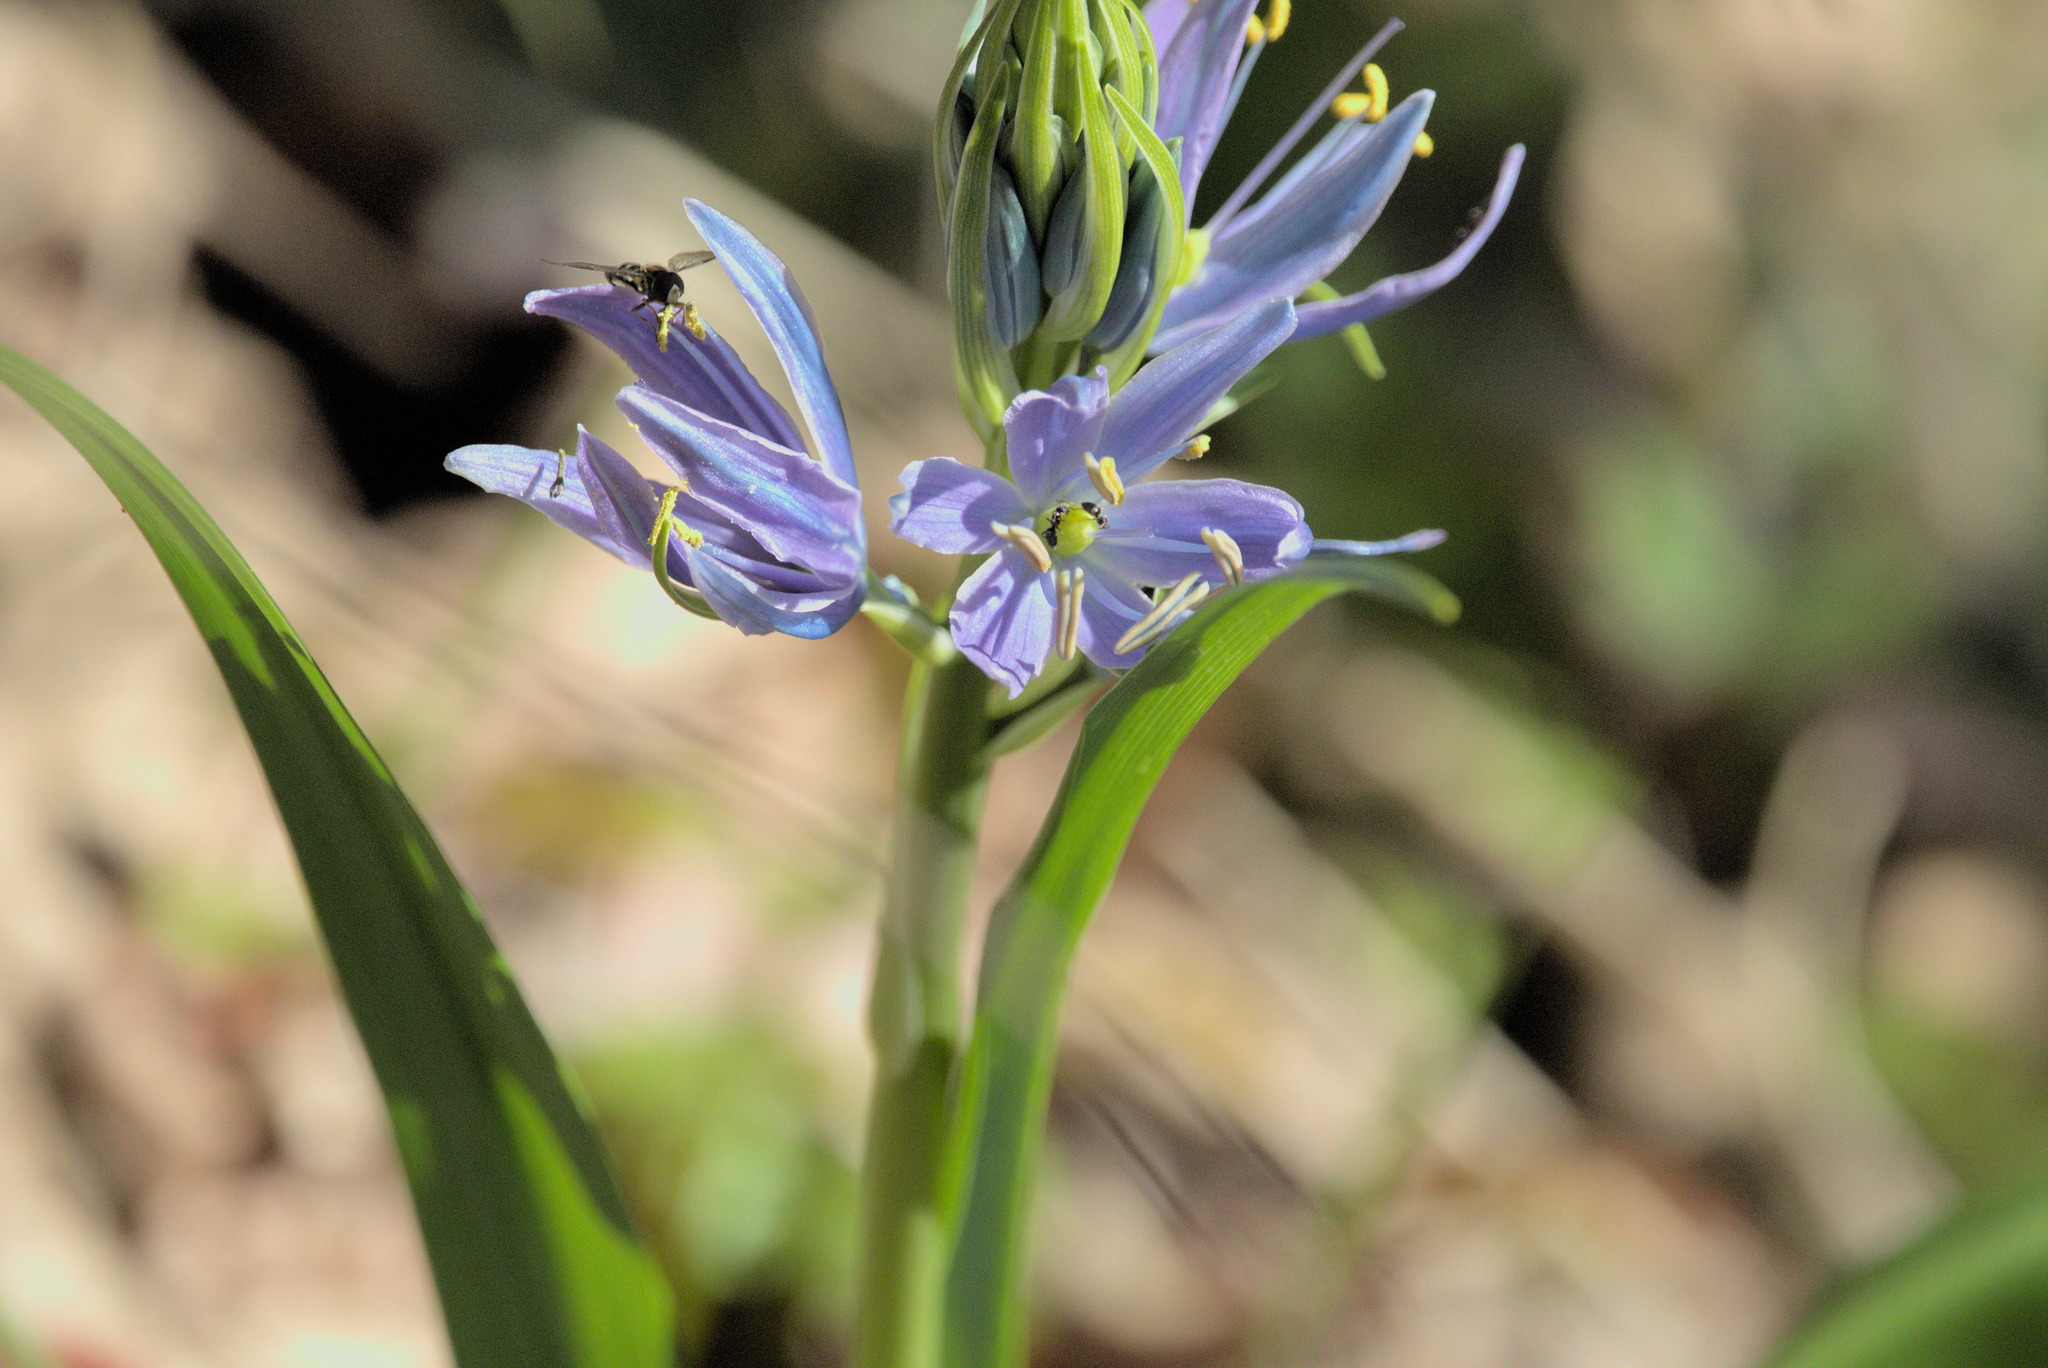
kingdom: Plantae
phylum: Tracheophyta
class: Liliopsida
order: Asparagales
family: Asparagaceae
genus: Camassia
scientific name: Camassia leichtlinii
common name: Leichtlin's camas
